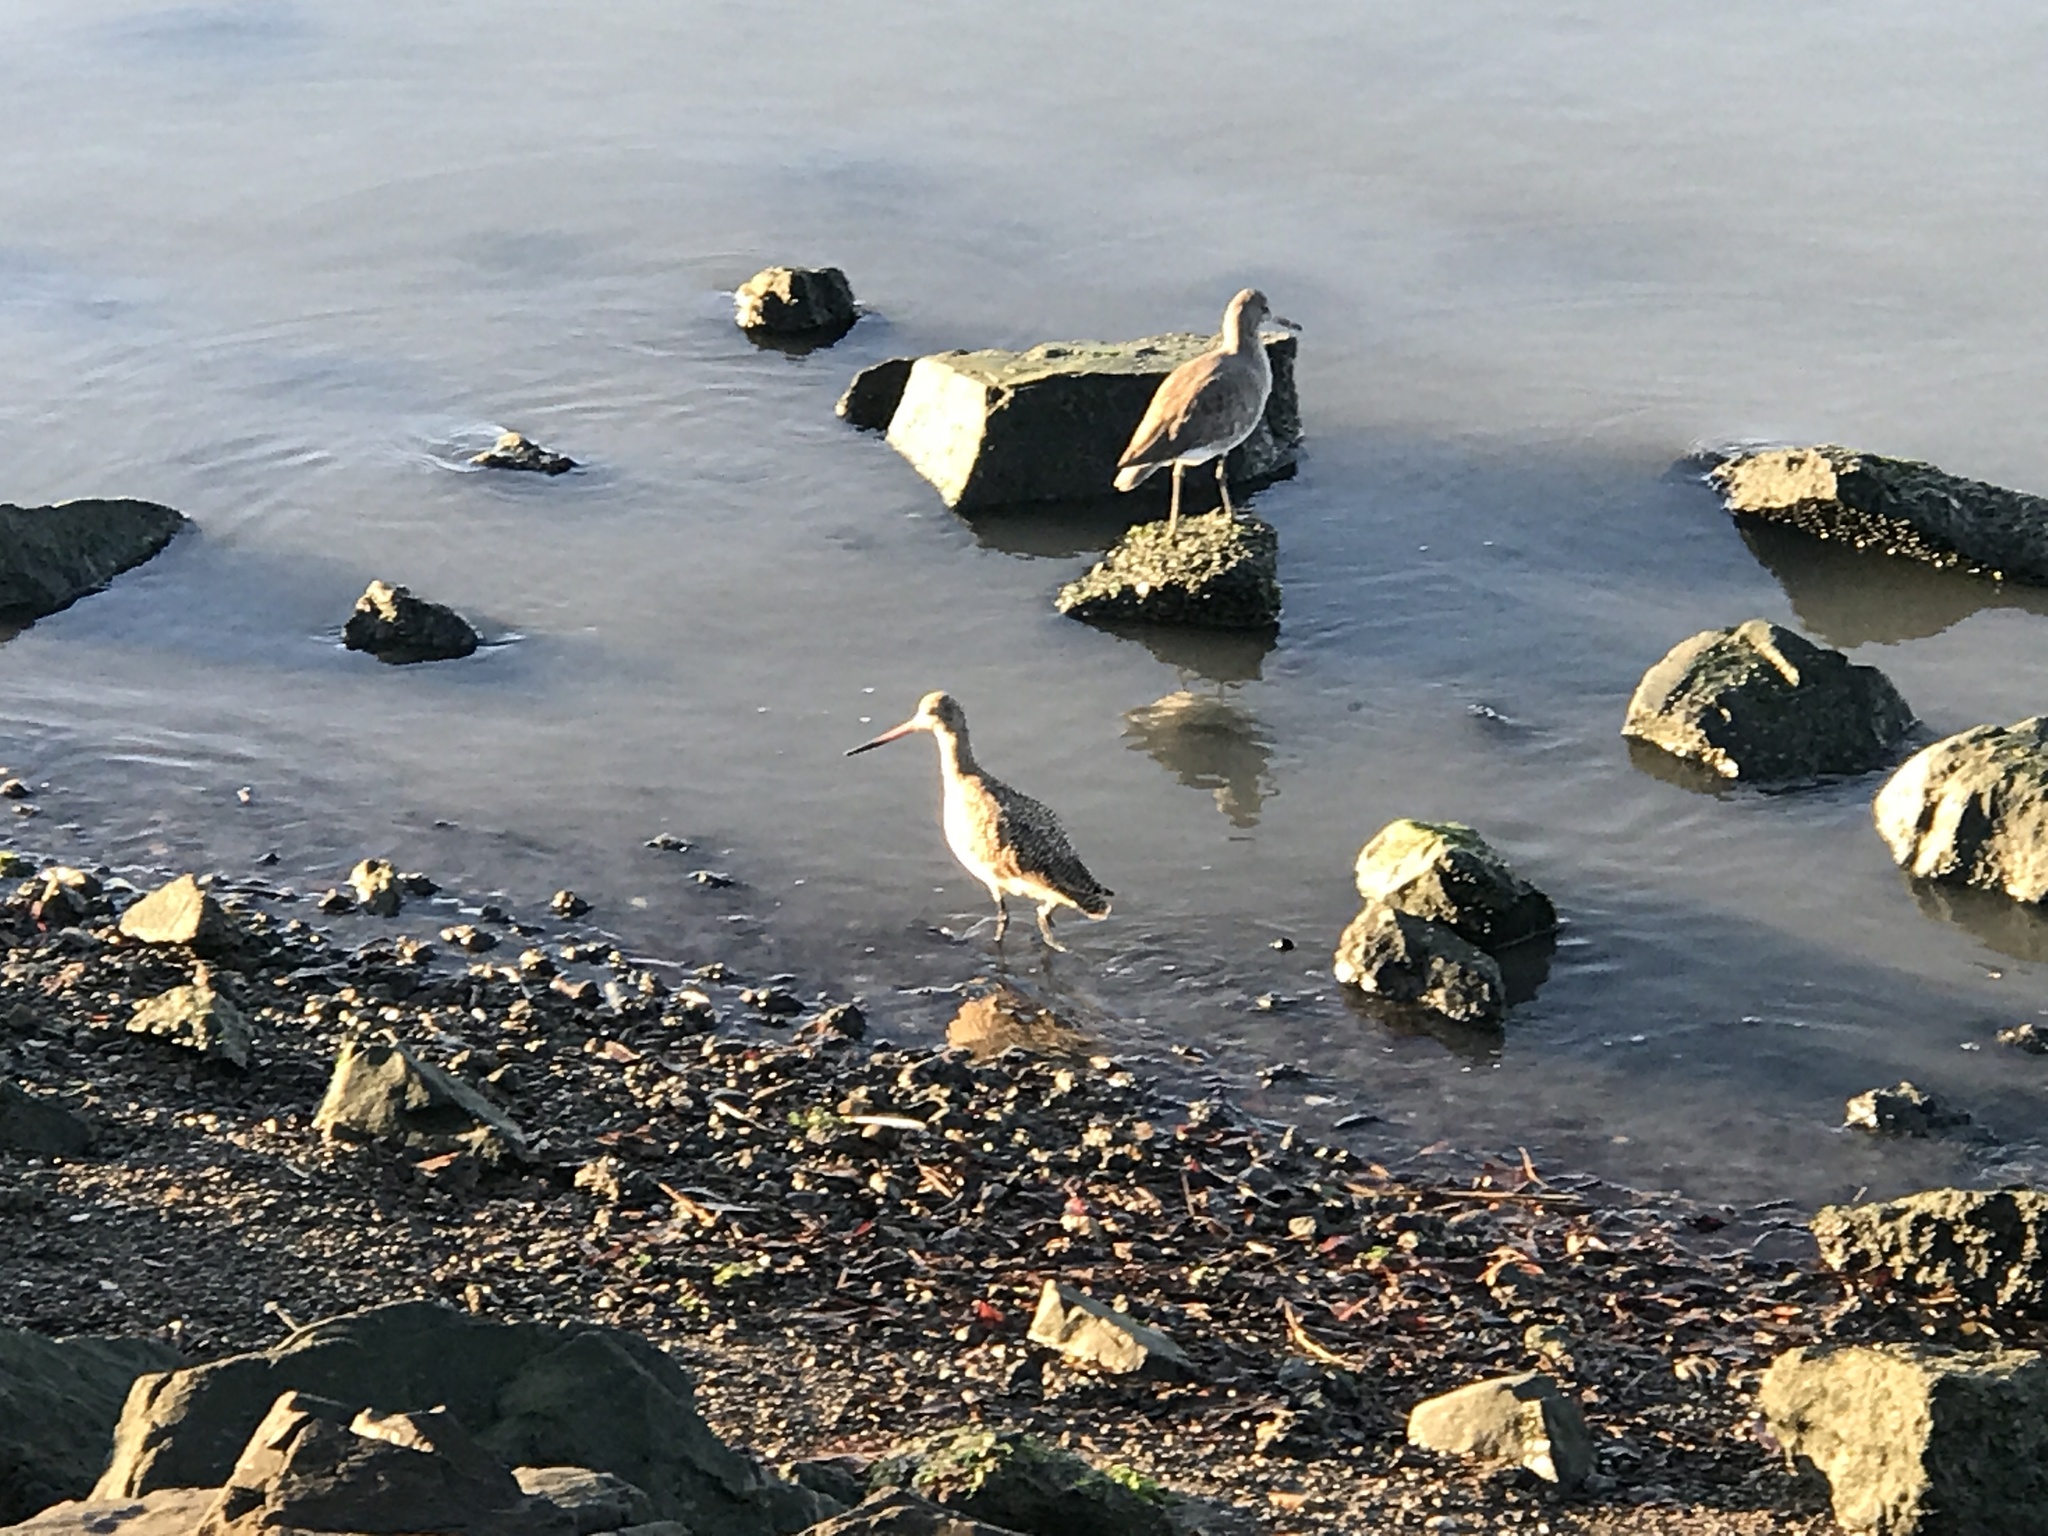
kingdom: Animalia
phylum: Chordata
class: Aves
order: Charadriiformes
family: Scolopacidae
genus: Limosa
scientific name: Limosa fedoa
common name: Marbled godwit
